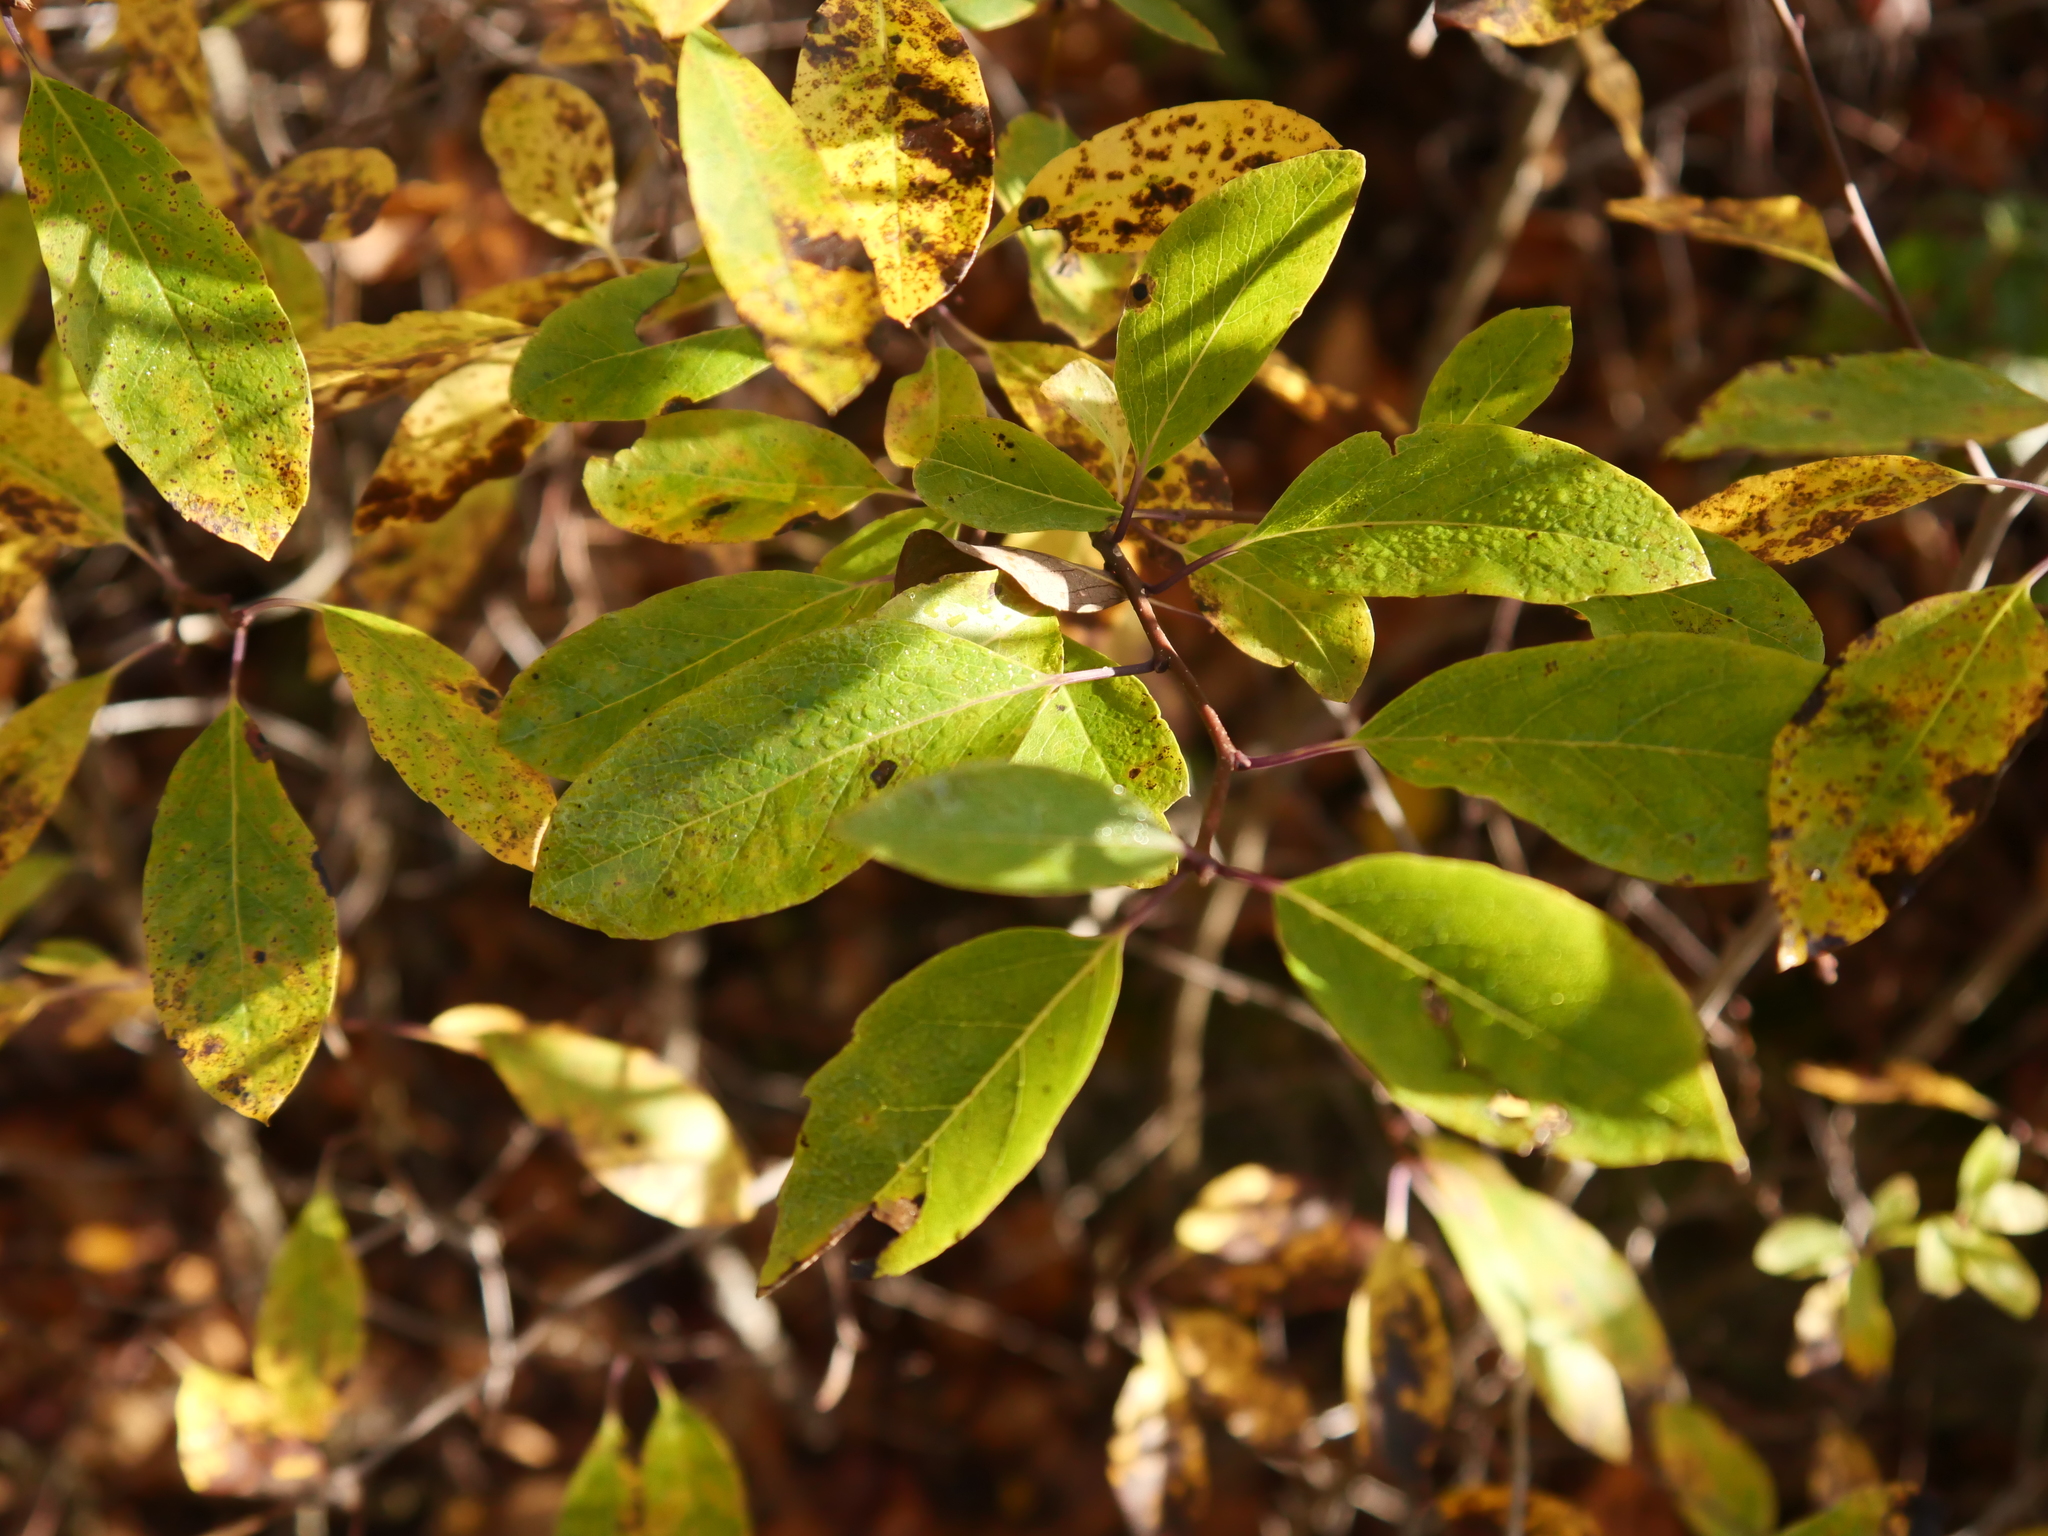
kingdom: Plantae
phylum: Tracheophyta
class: Magnoliopsida
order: Aquifoliales
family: Aquifoliaceae
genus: Ilex
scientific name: Ilex mucronata
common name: Catberry
